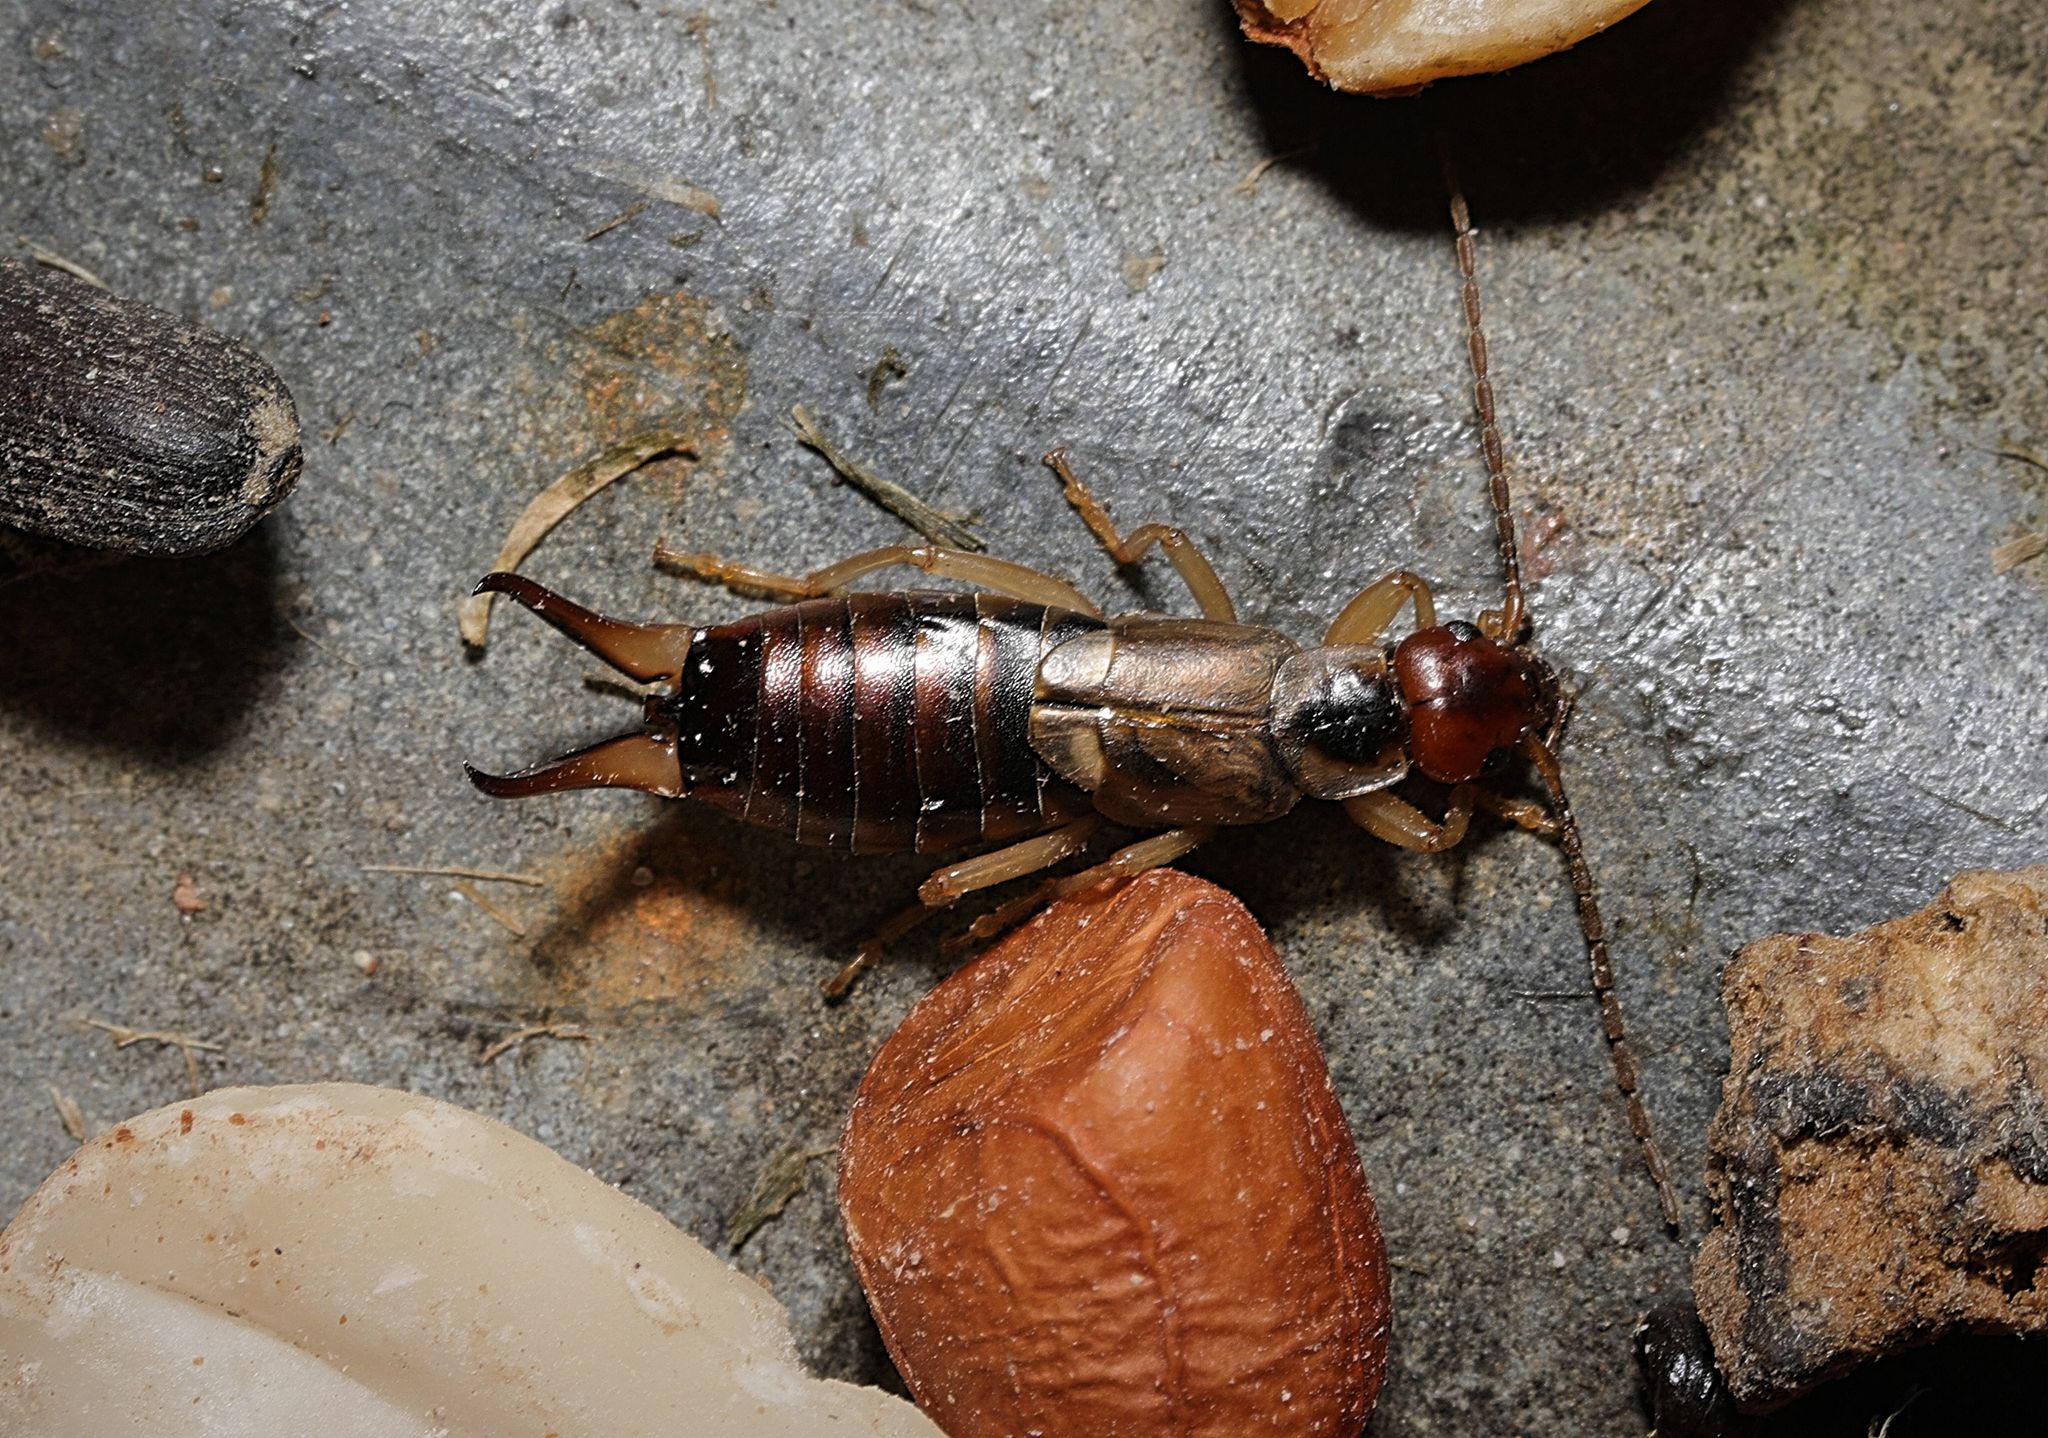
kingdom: Animalia
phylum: Arthropoda
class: Insecta
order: Dermaptera
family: Forficulidae
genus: Forficula
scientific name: Forficula
